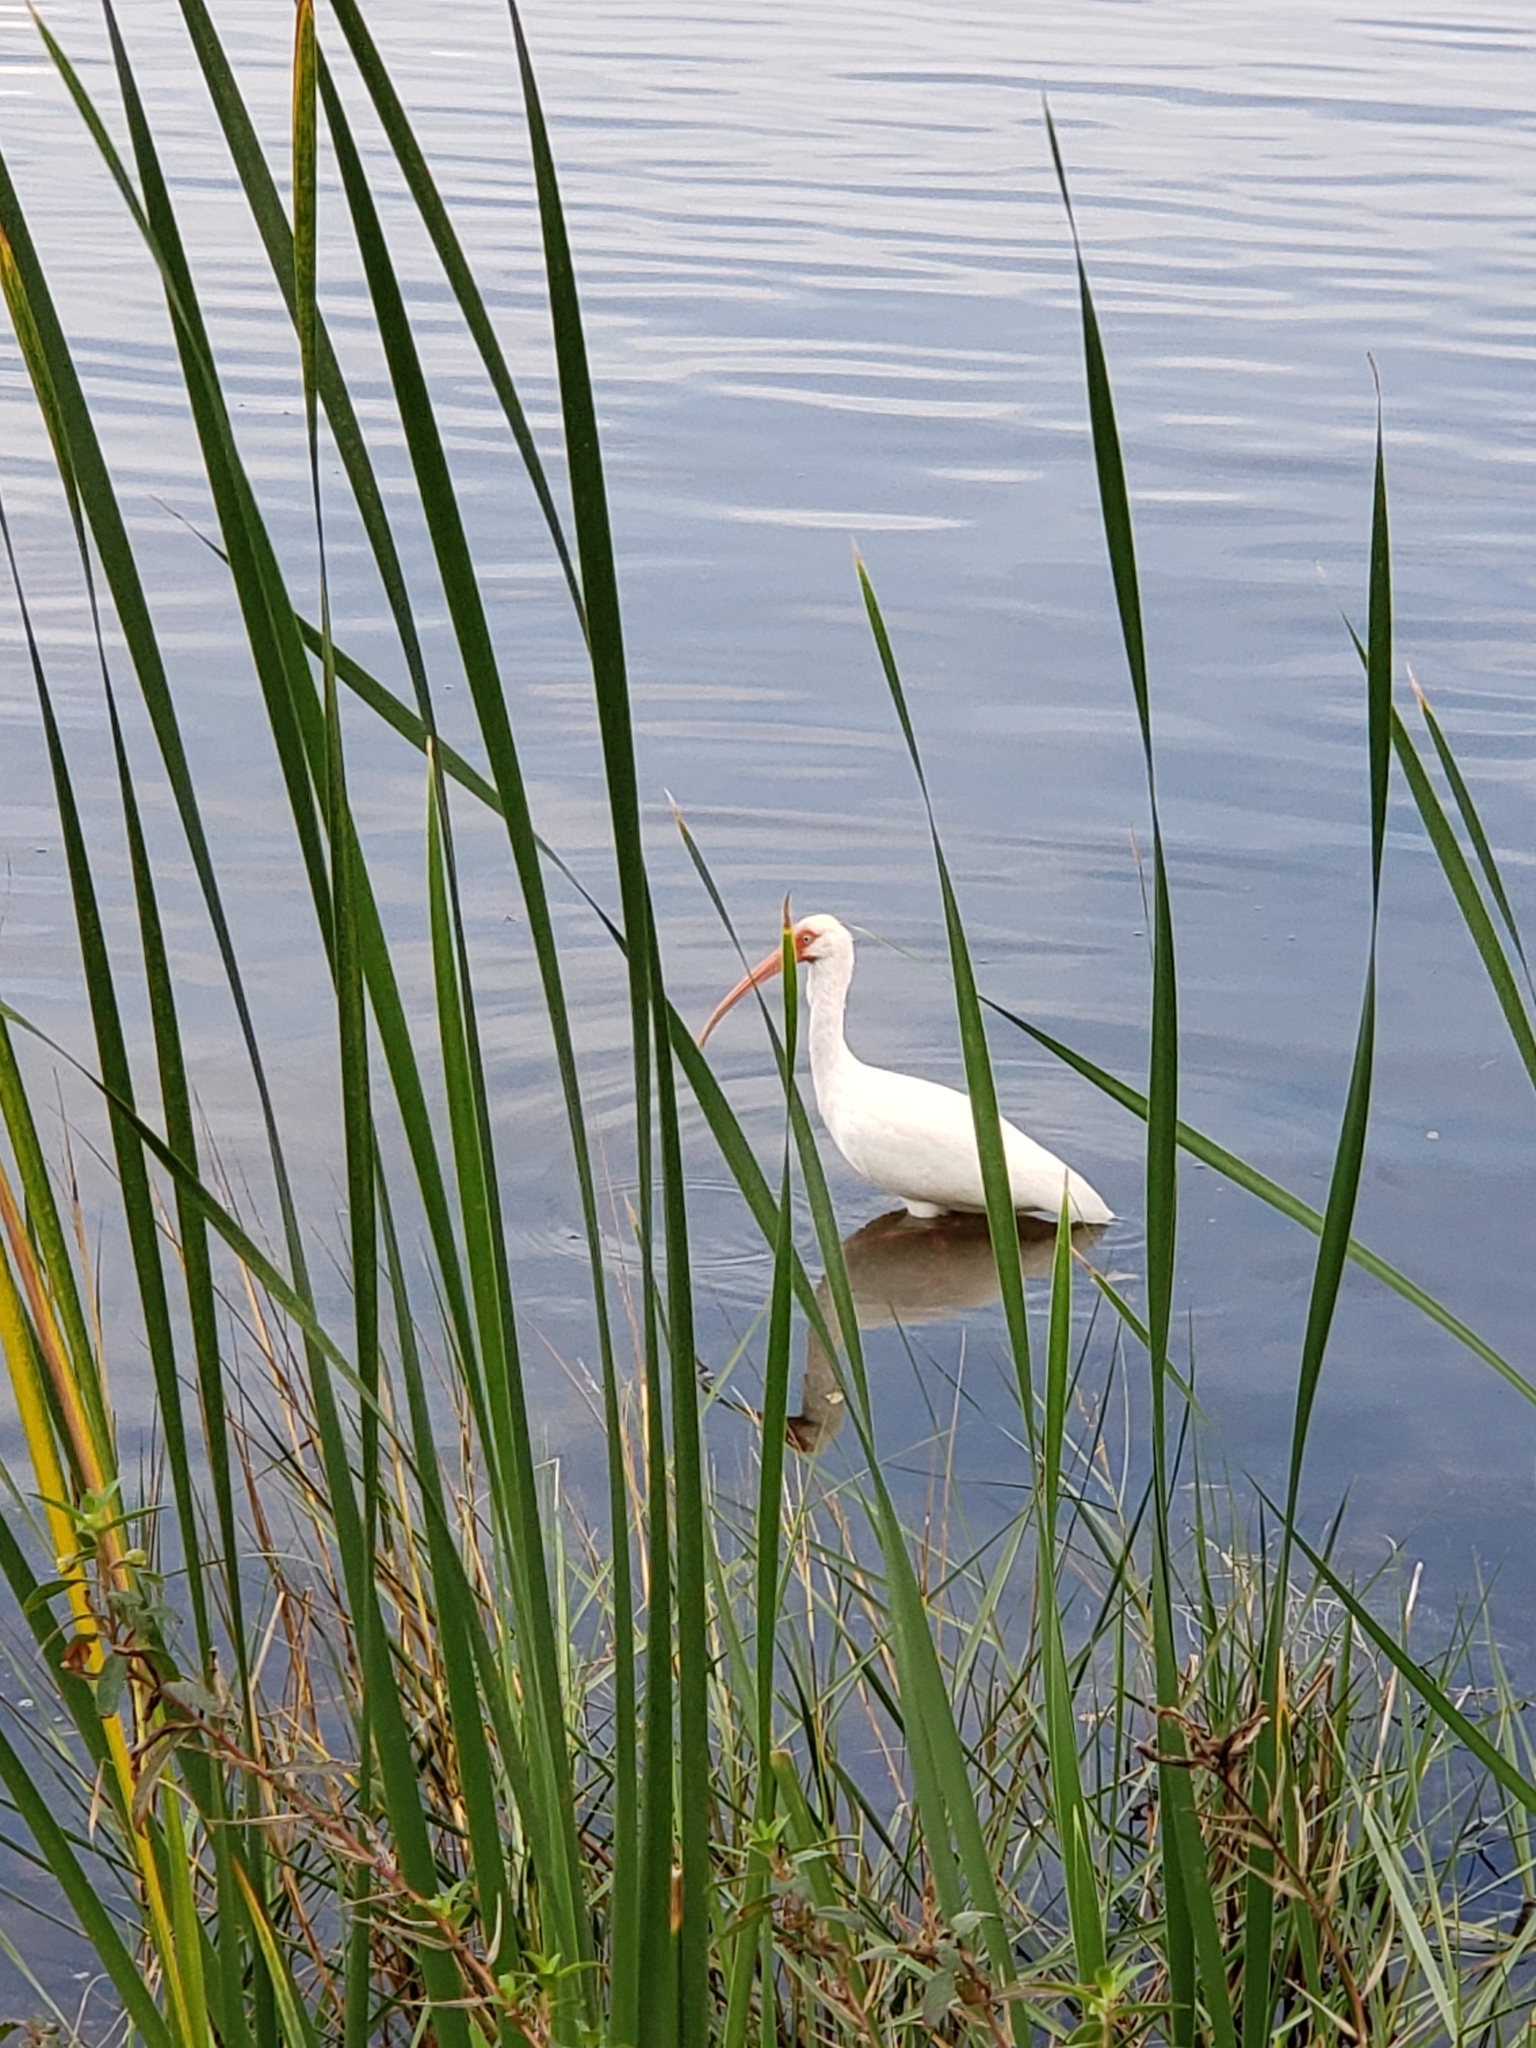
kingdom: Animalia
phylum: Chordata
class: Aves
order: Pelecaniformes
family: Threskiornithidae
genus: Eudocimus
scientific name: Eudocimus albus
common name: White ibis
